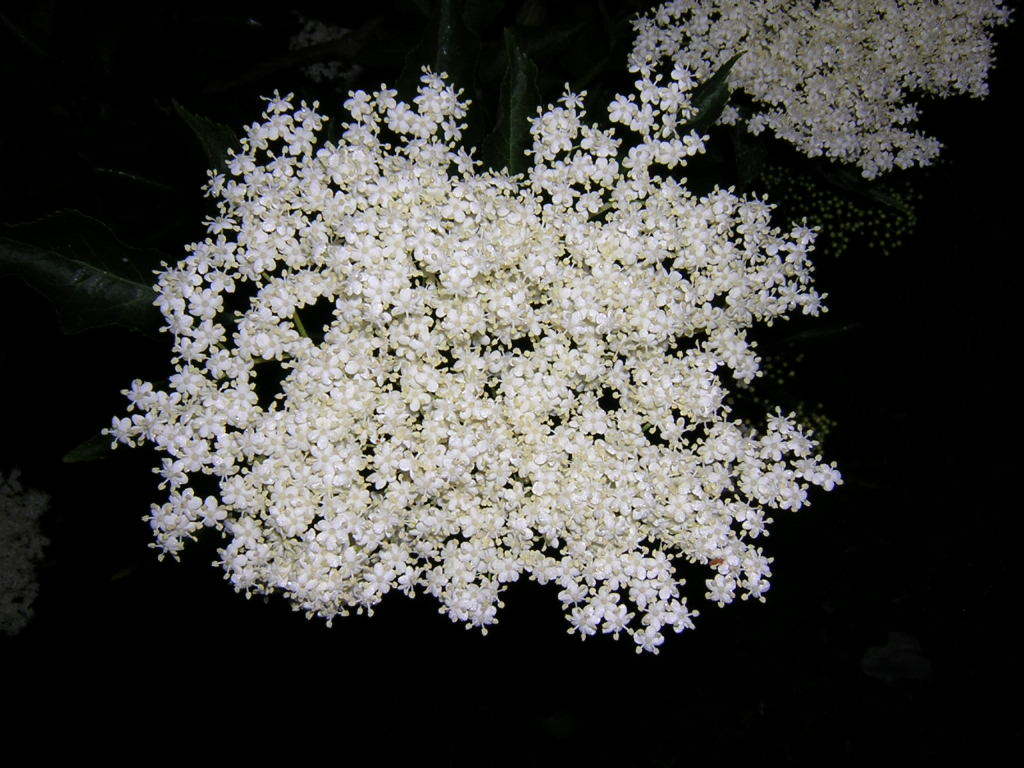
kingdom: Plantae
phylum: Tracheophyta
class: Magnoliopsida
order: Dipsacales
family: Viburnaceae
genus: Sambucus
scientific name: Sambucus nigra
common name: Elder
